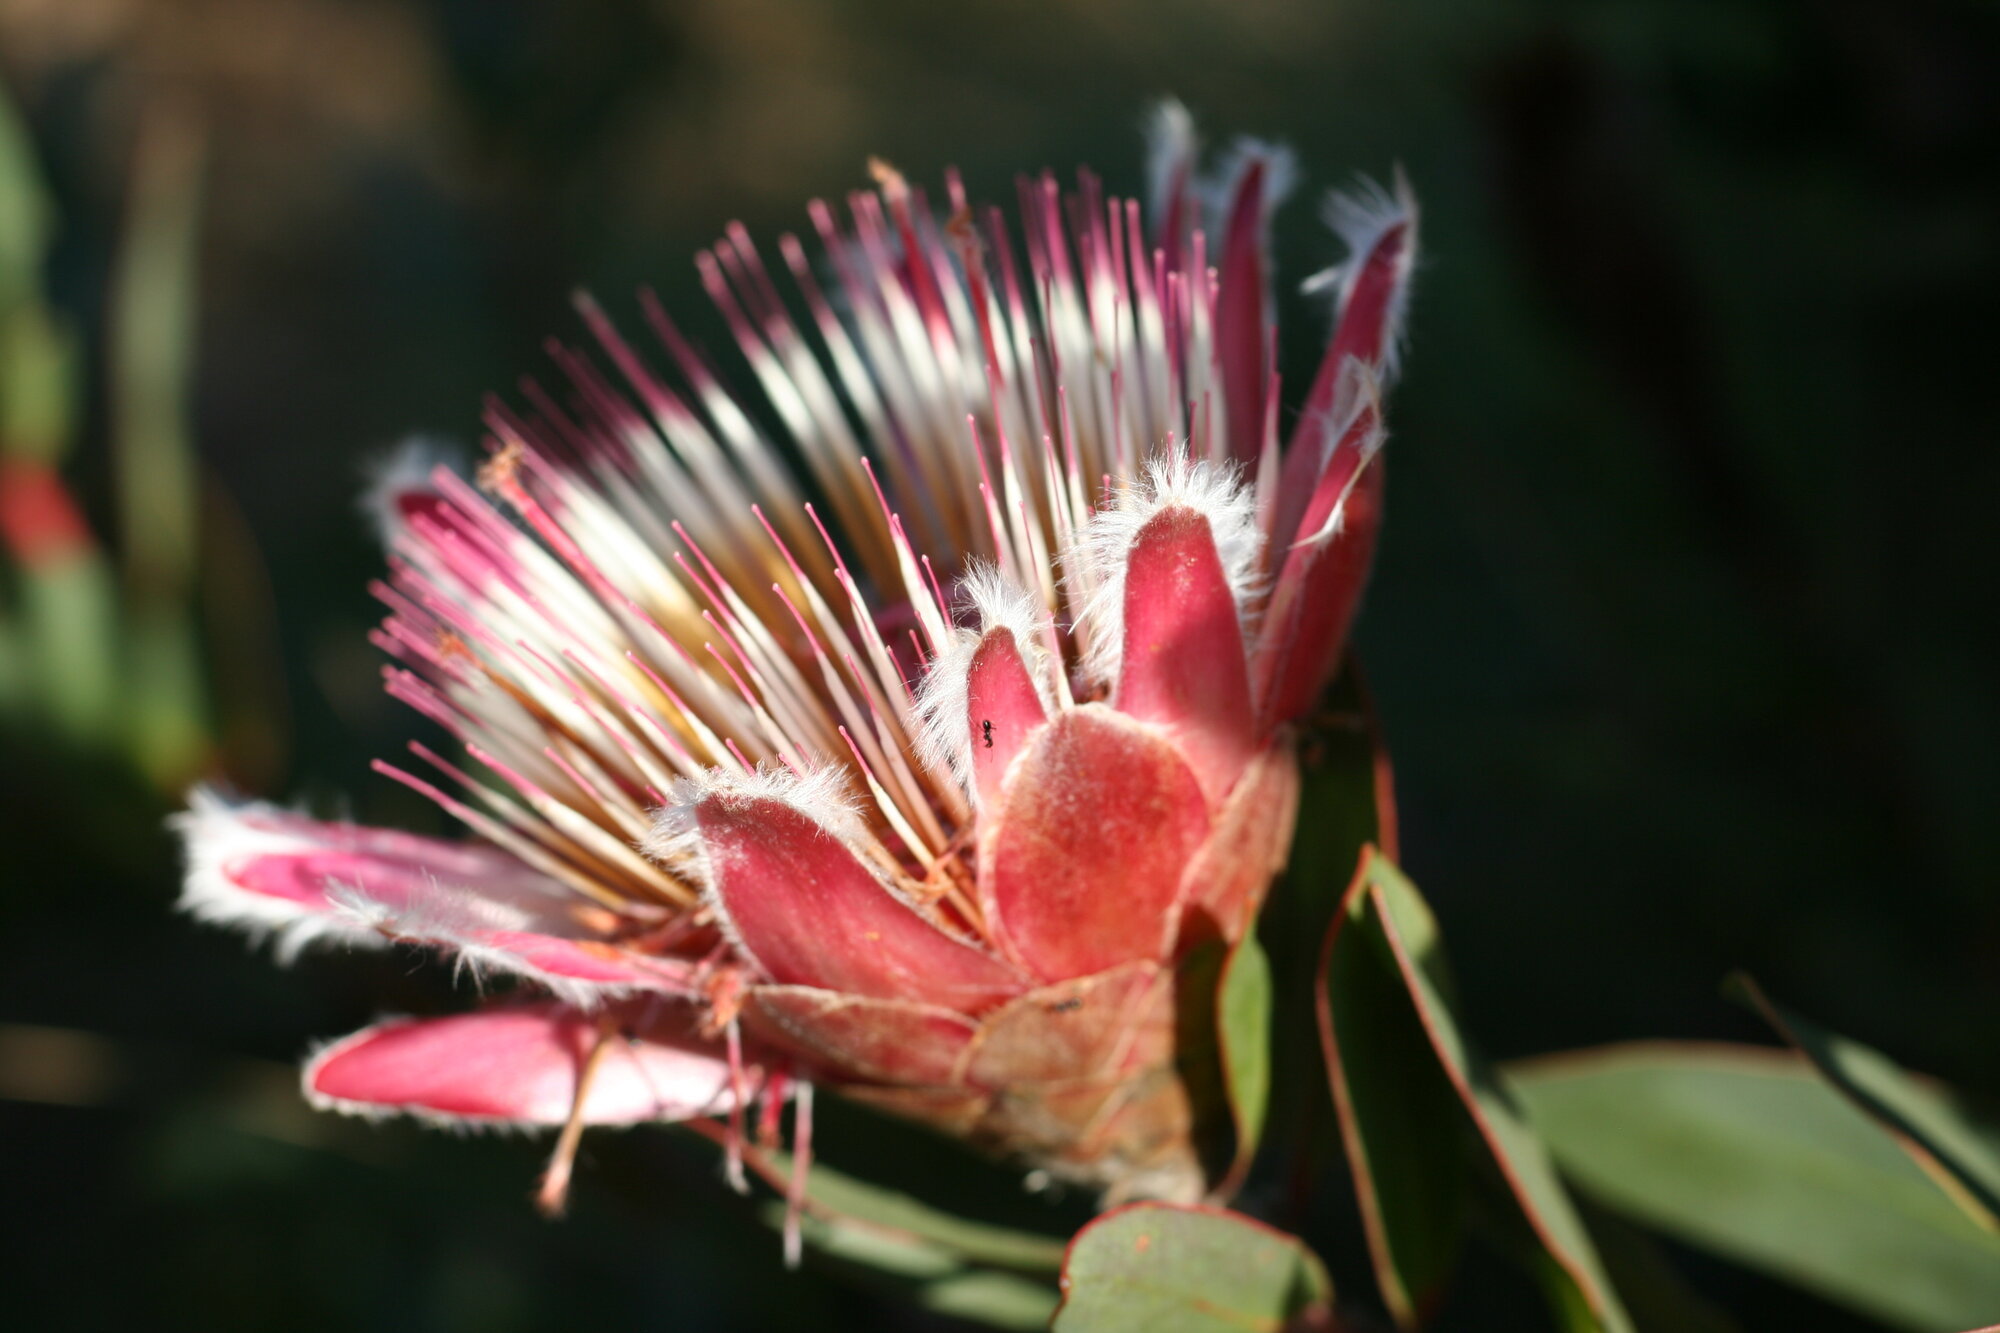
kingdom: Plantae
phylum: Tracheophyta
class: Magnoliopsida
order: Proteales
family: Proteaceae
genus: Protea
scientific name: Protea lacticolor
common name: Hottentot sugarbush
